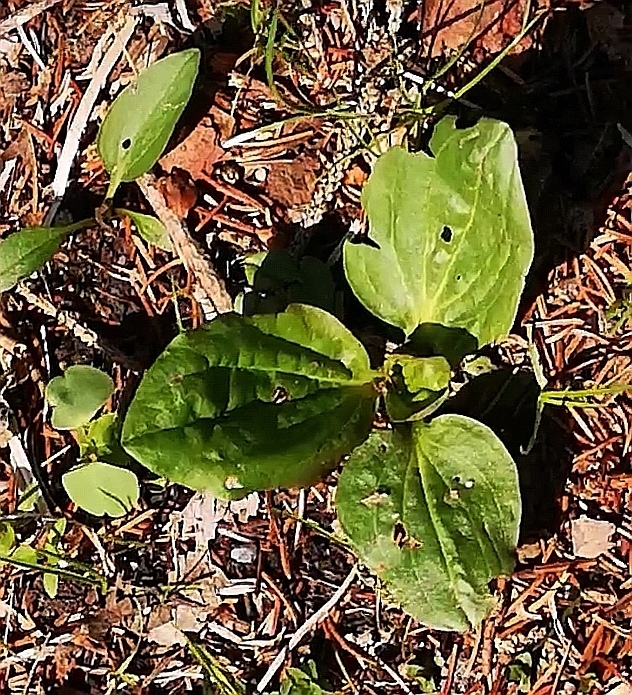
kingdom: Plantae
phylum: Tracheophyta
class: Magnoliopsida
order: Lamiales
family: Plantaginaceae
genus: Plantago
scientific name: Plantago major
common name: Common plantain
